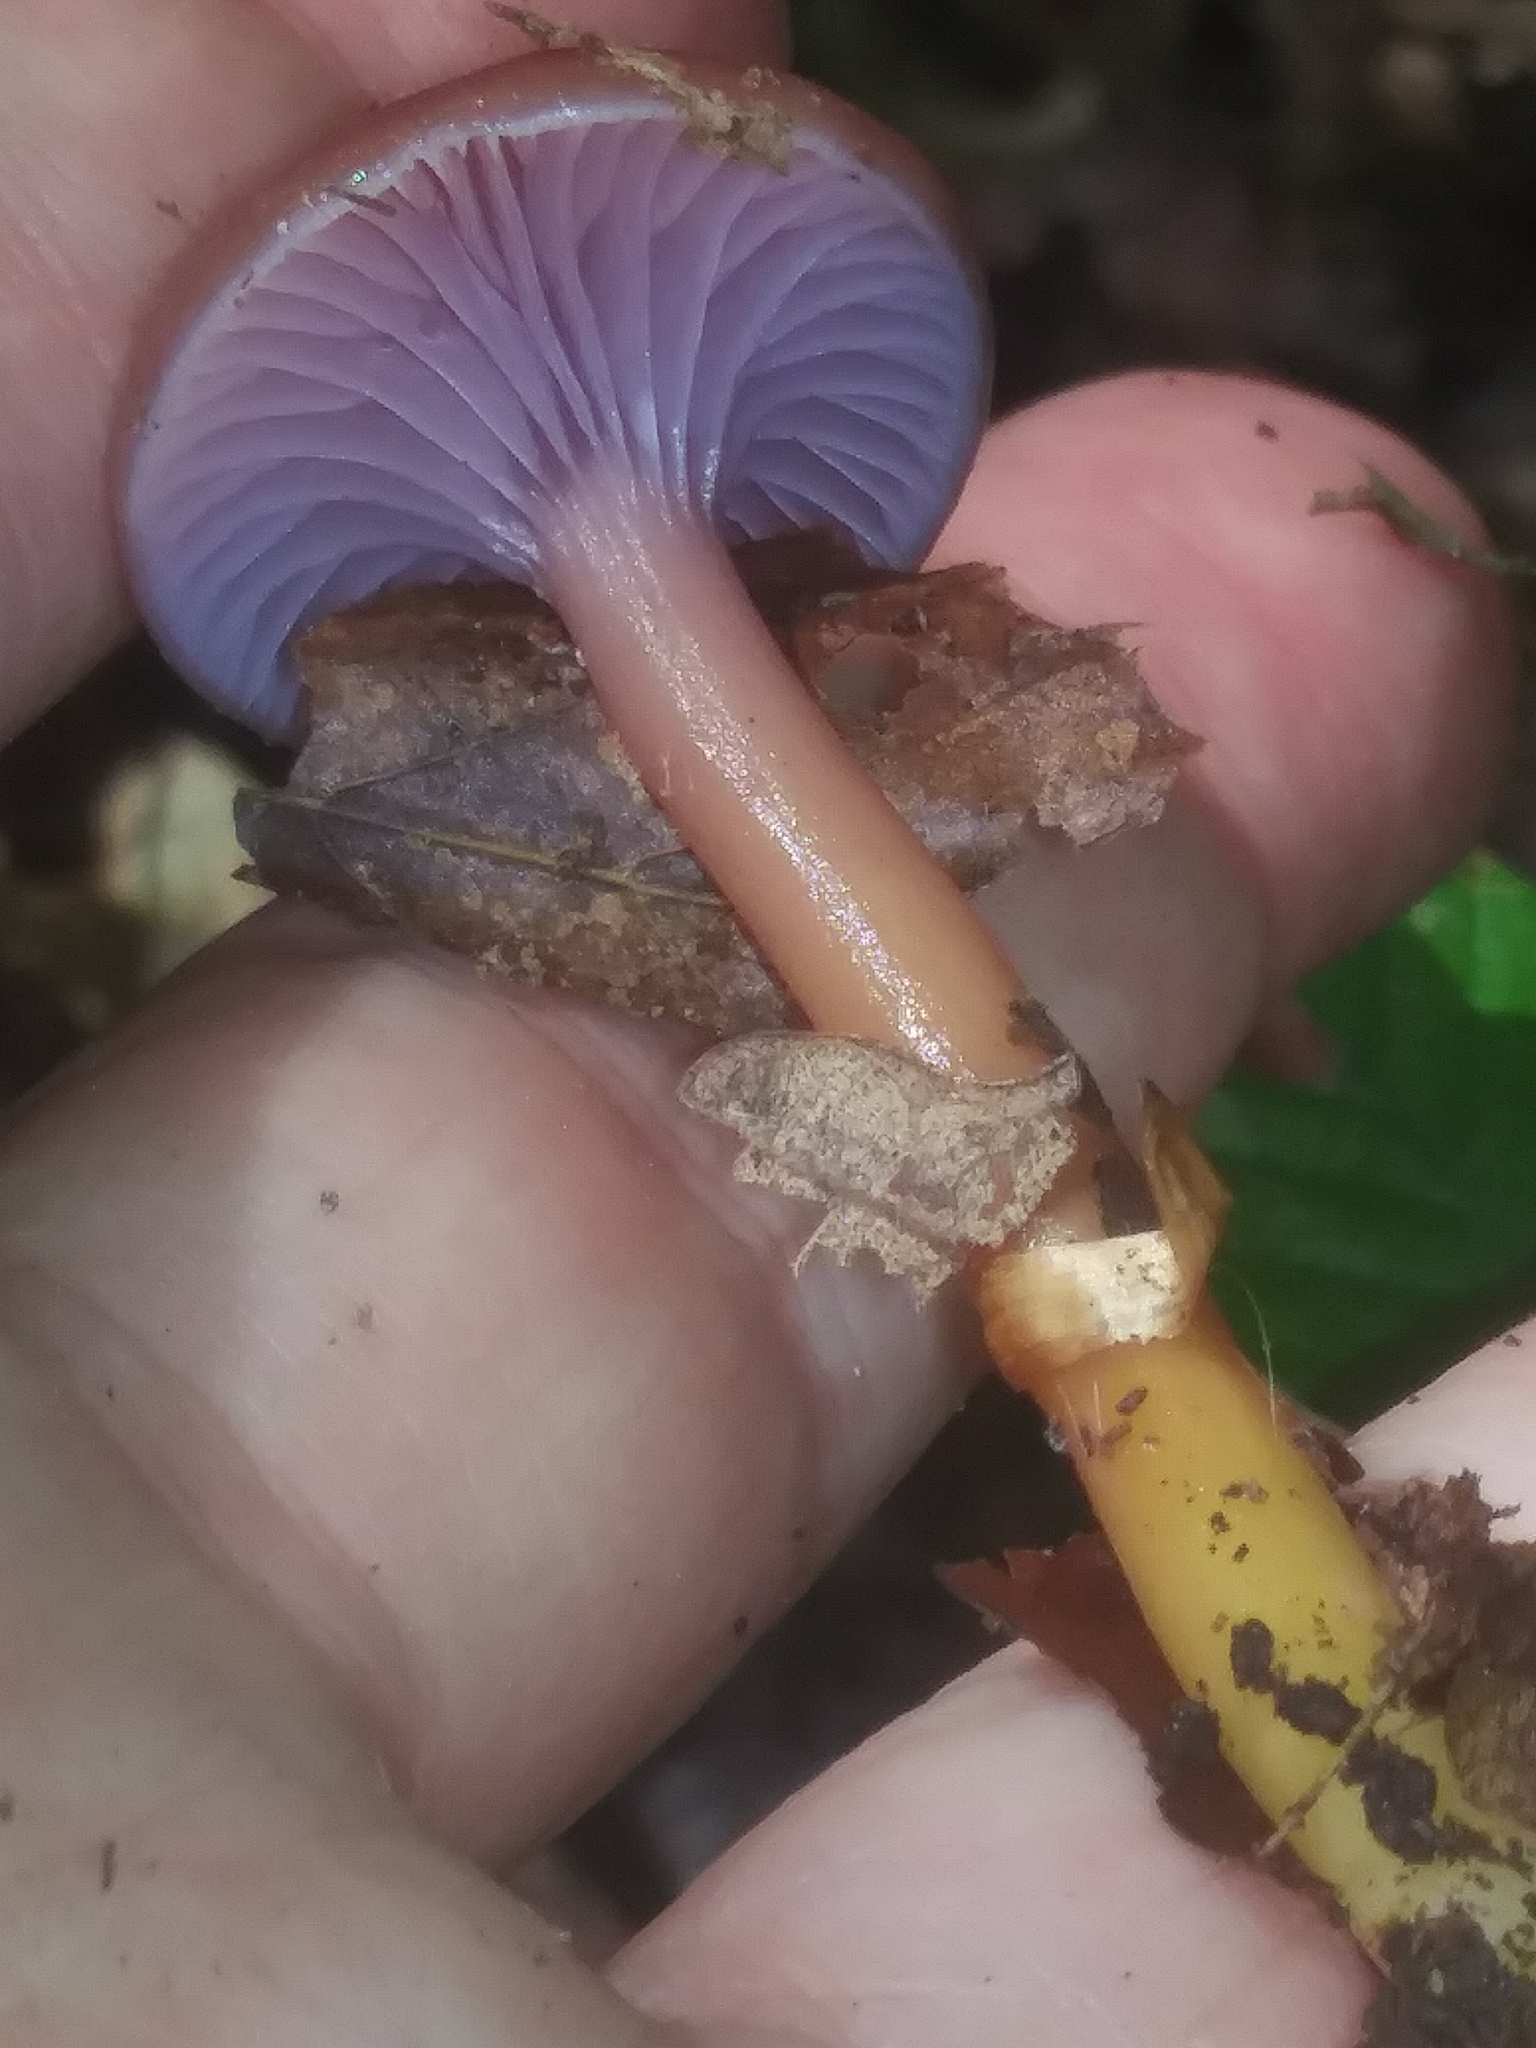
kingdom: Fungi
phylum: Basidiomycota
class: Agaricomycetes
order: Agaricales
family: Hygrophoraceae
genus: Gliophorus
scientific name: Gliophorus laetus
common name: Heath waxcap
